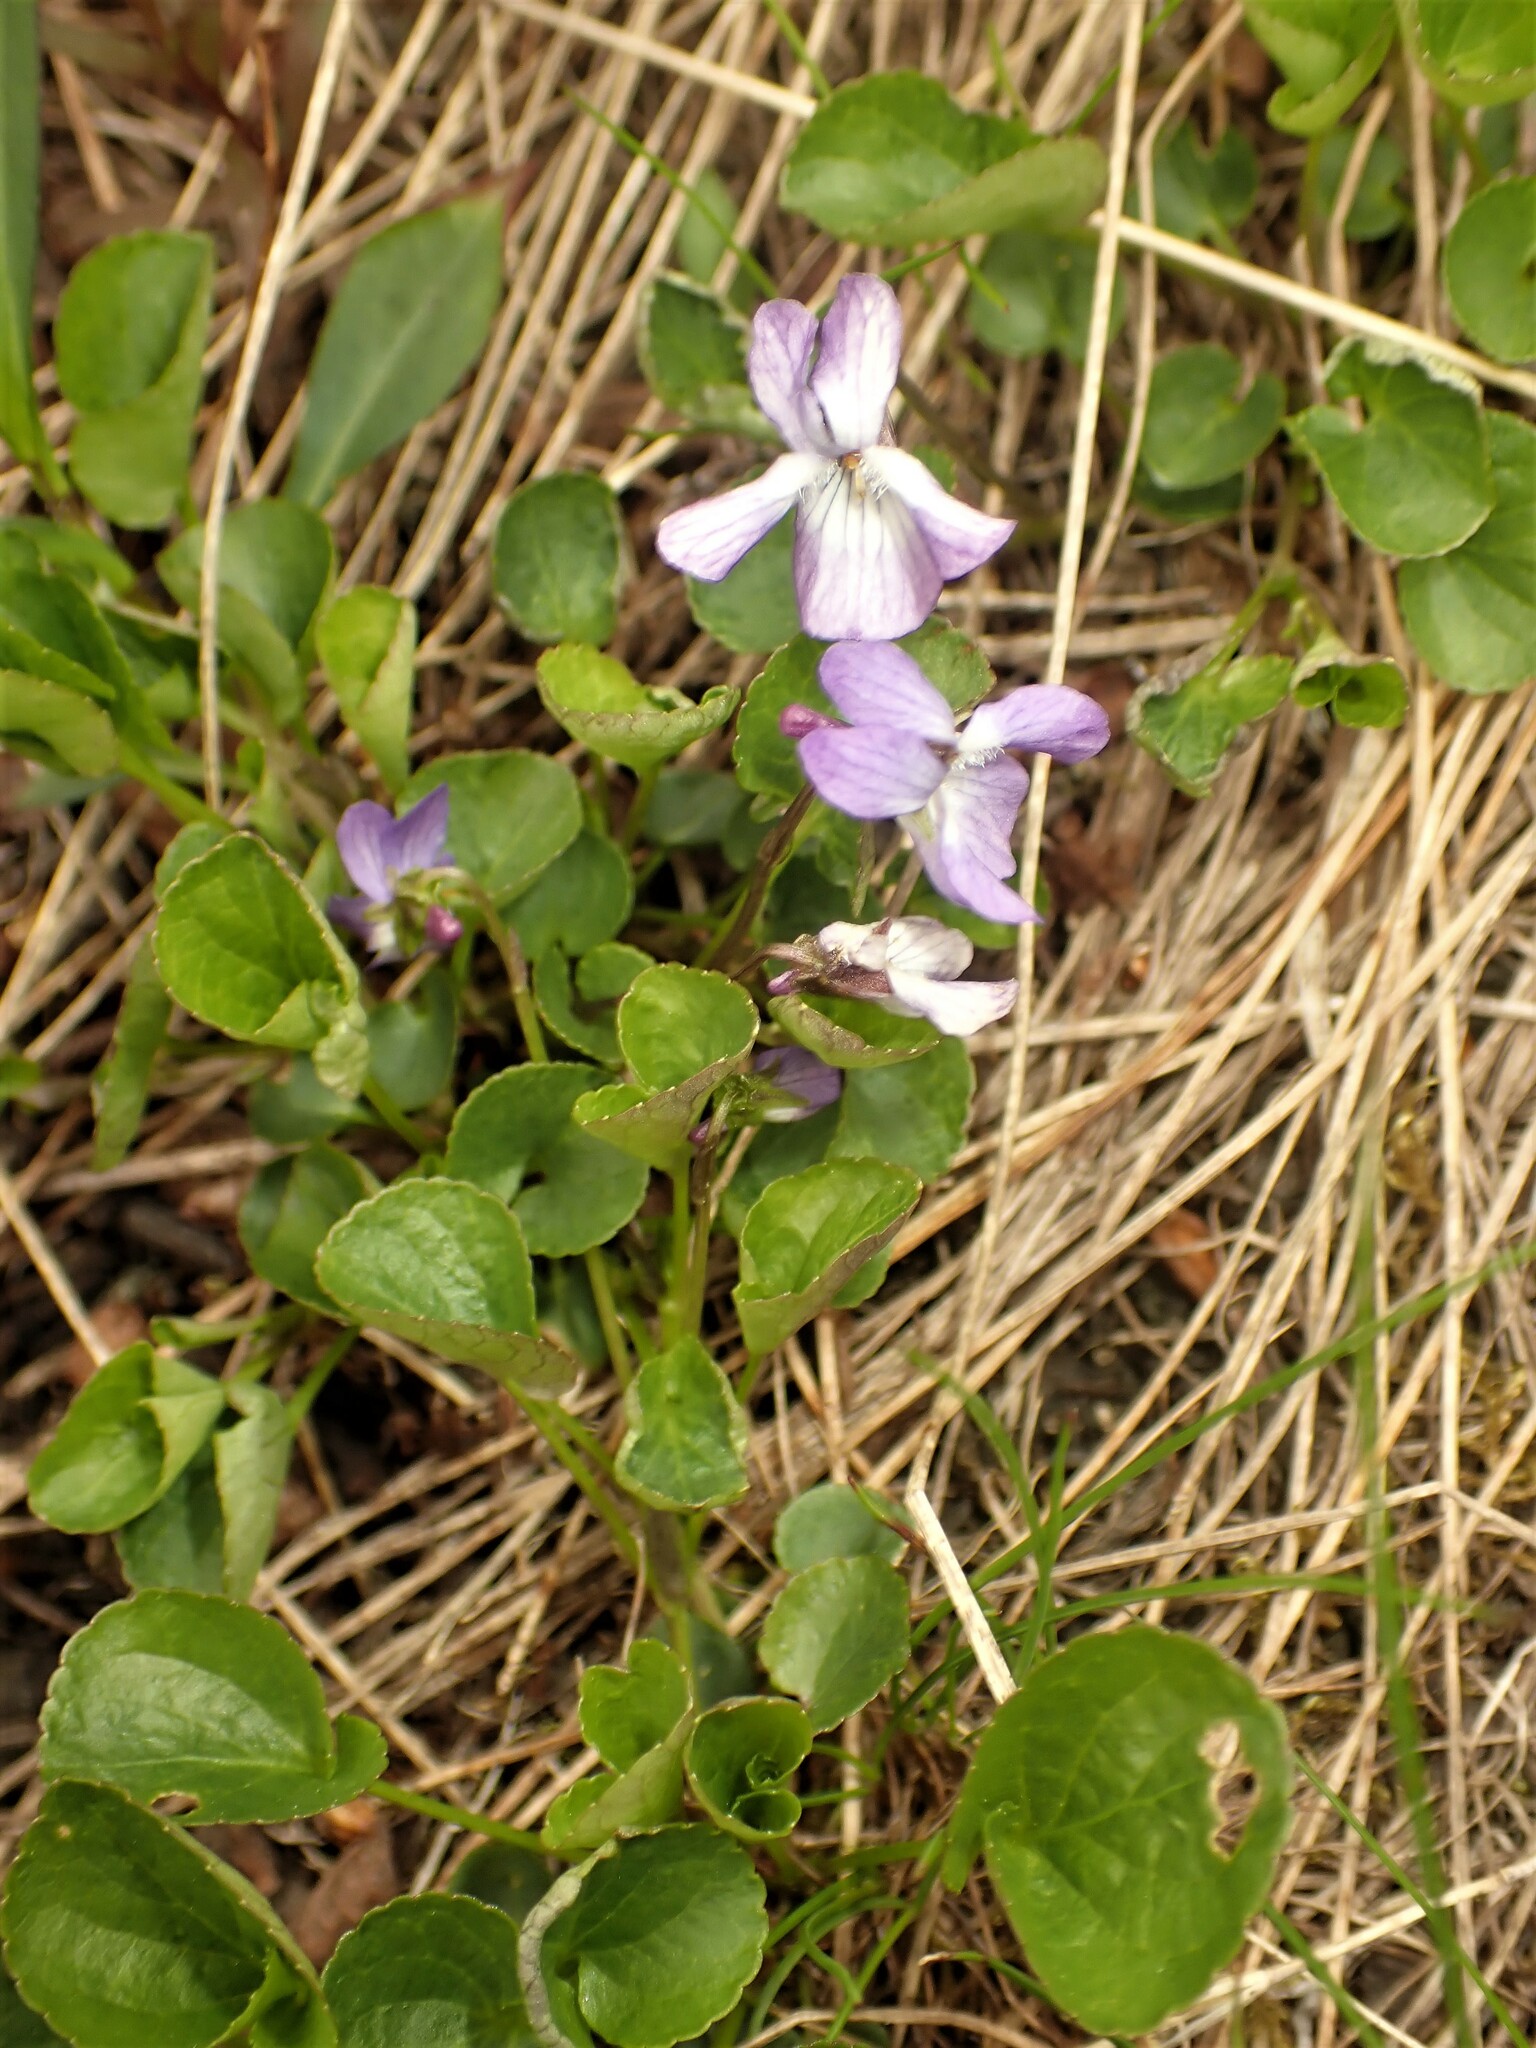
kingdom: Plantae
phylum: Tracheophyta
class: Magnoliopsida
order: Malpighiales
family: Violaceae
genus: Viola
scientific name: Viola labradorica
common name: Labrador violet
